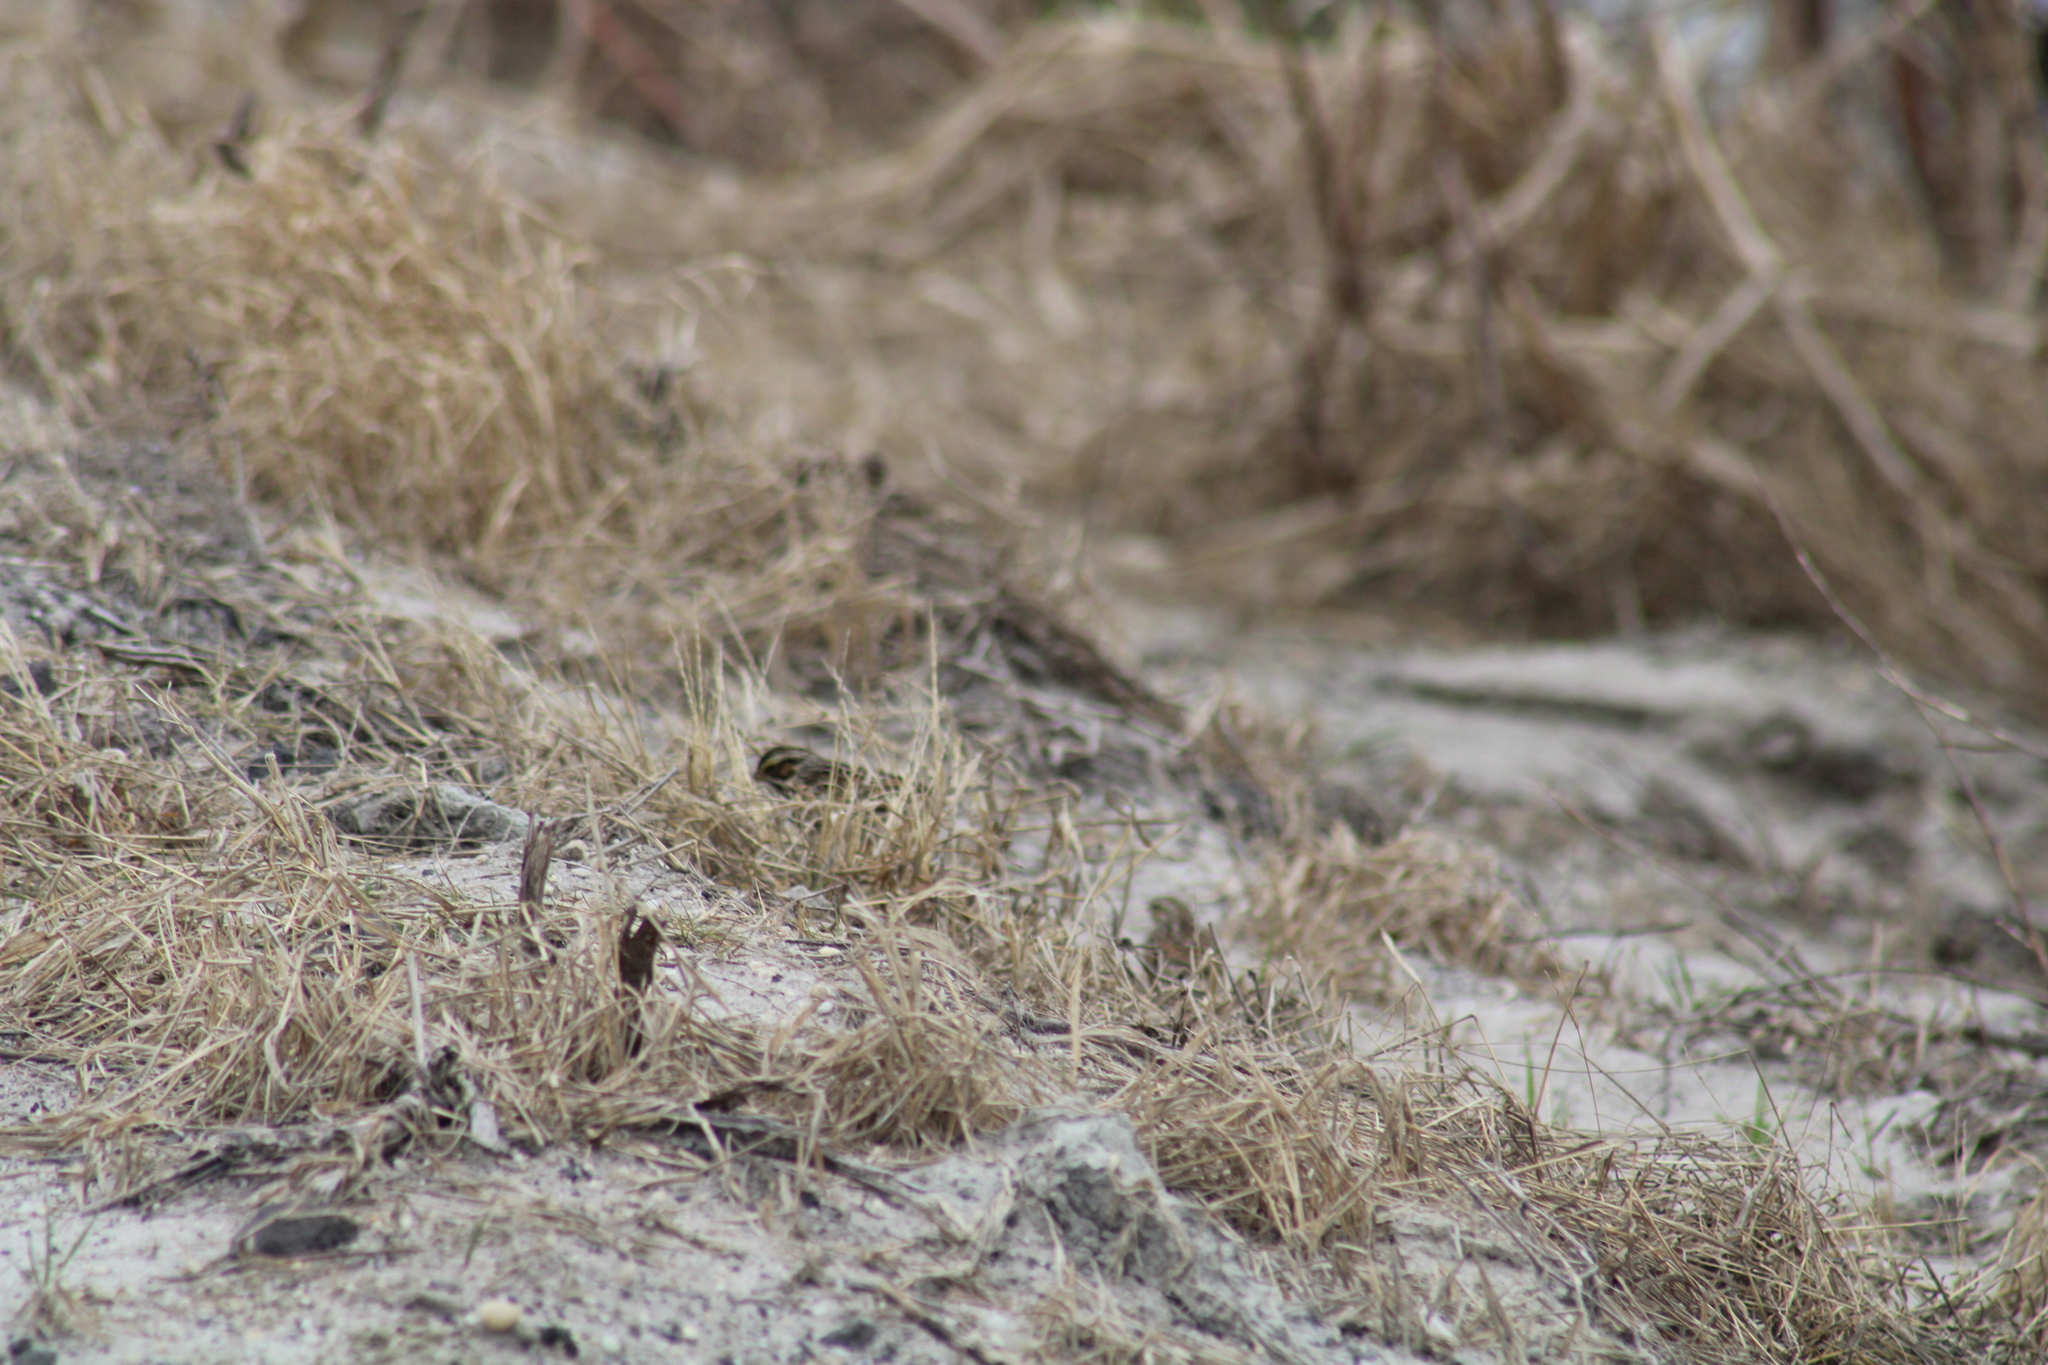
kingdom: Animalia
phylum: Chordata
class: Aves
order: Passeriformes
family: Passerellidae
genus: Passerculus
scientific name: Passerculus sandwichensis
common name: Savannah sparrow
